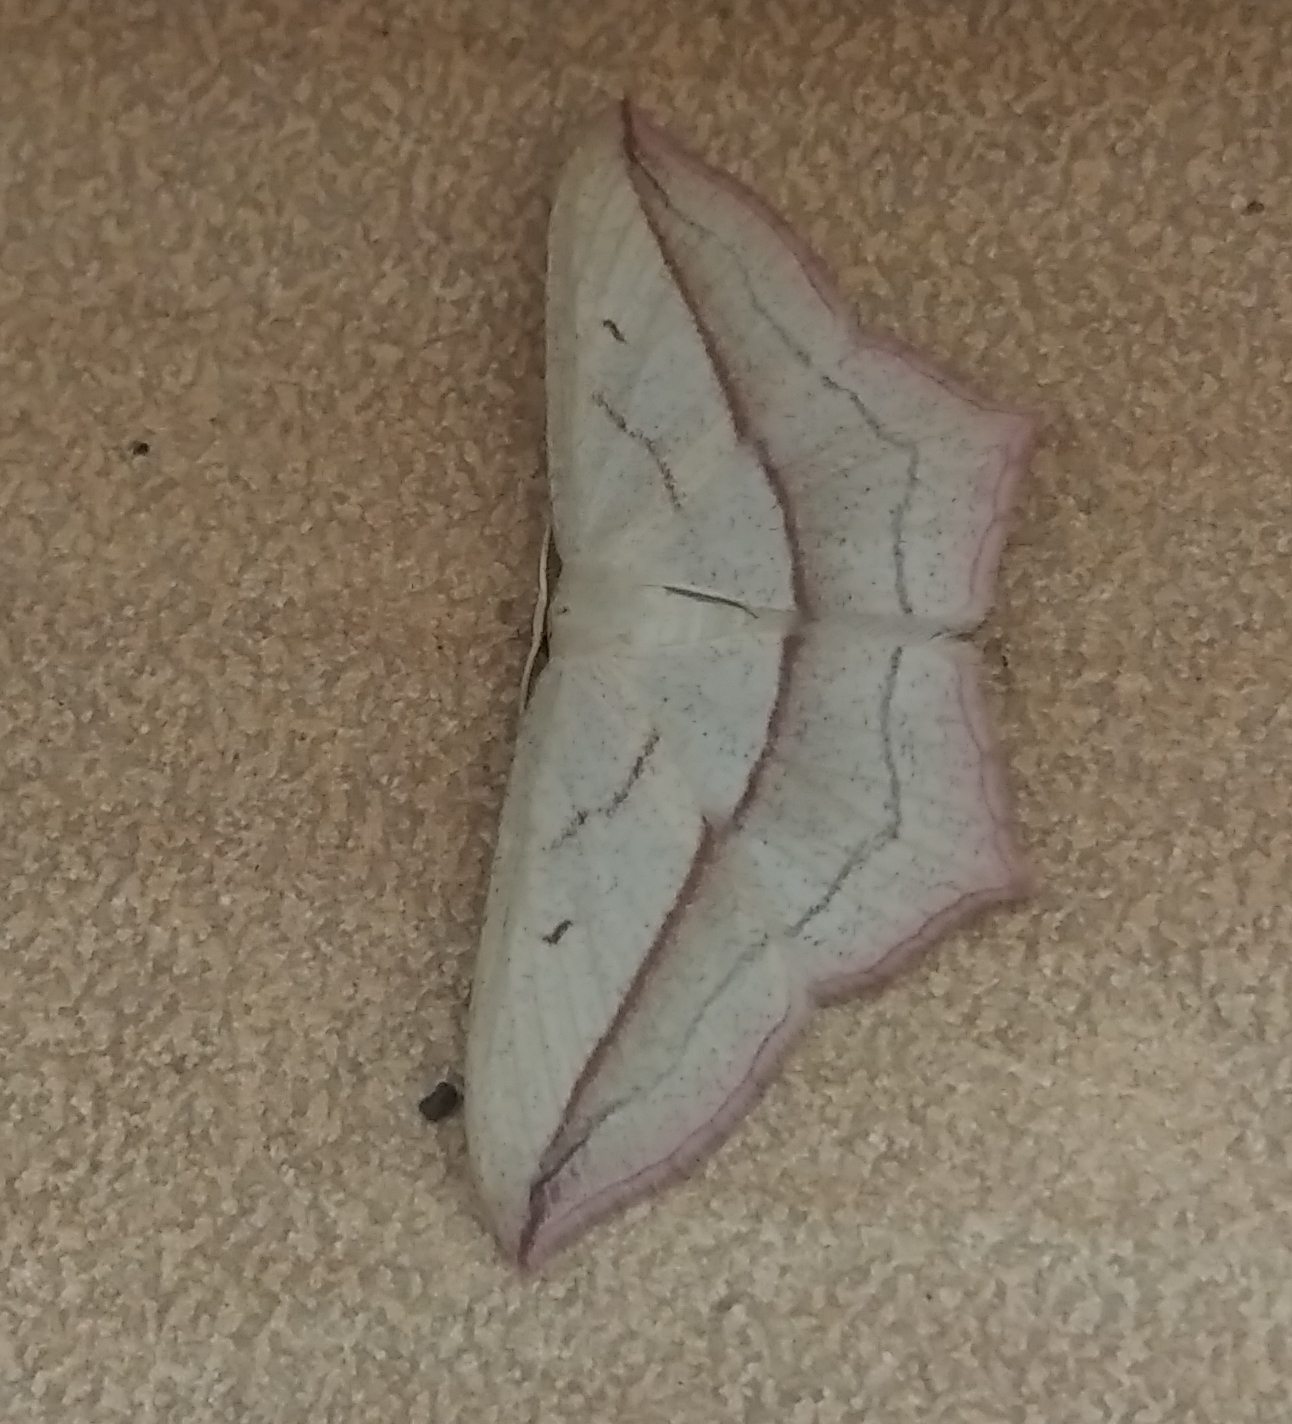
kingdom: Animalia
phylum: Arthropoda
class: Insecta
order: Lepidoptera
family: Geometridae
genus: Timandra
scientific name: Timandra comae
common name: Blood-vein
